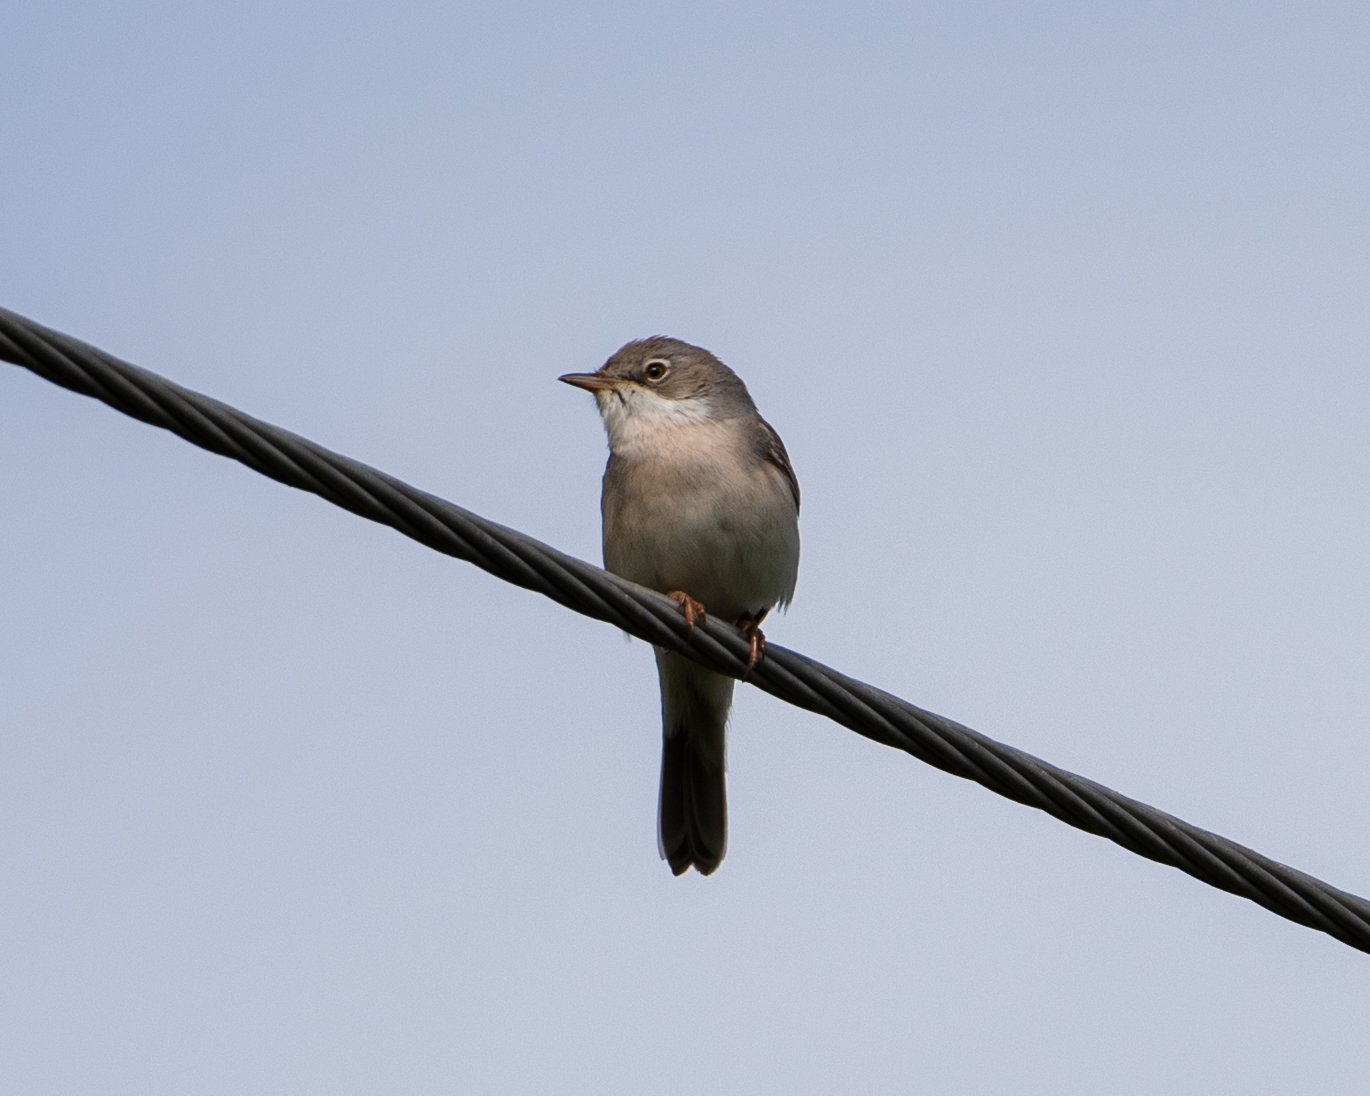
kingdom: Animalia
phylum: Chordata
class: Aves
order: Passeriformes
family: Sylviidae
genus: Sylvia
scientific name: Sylvia communis
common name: Common whitethroat
